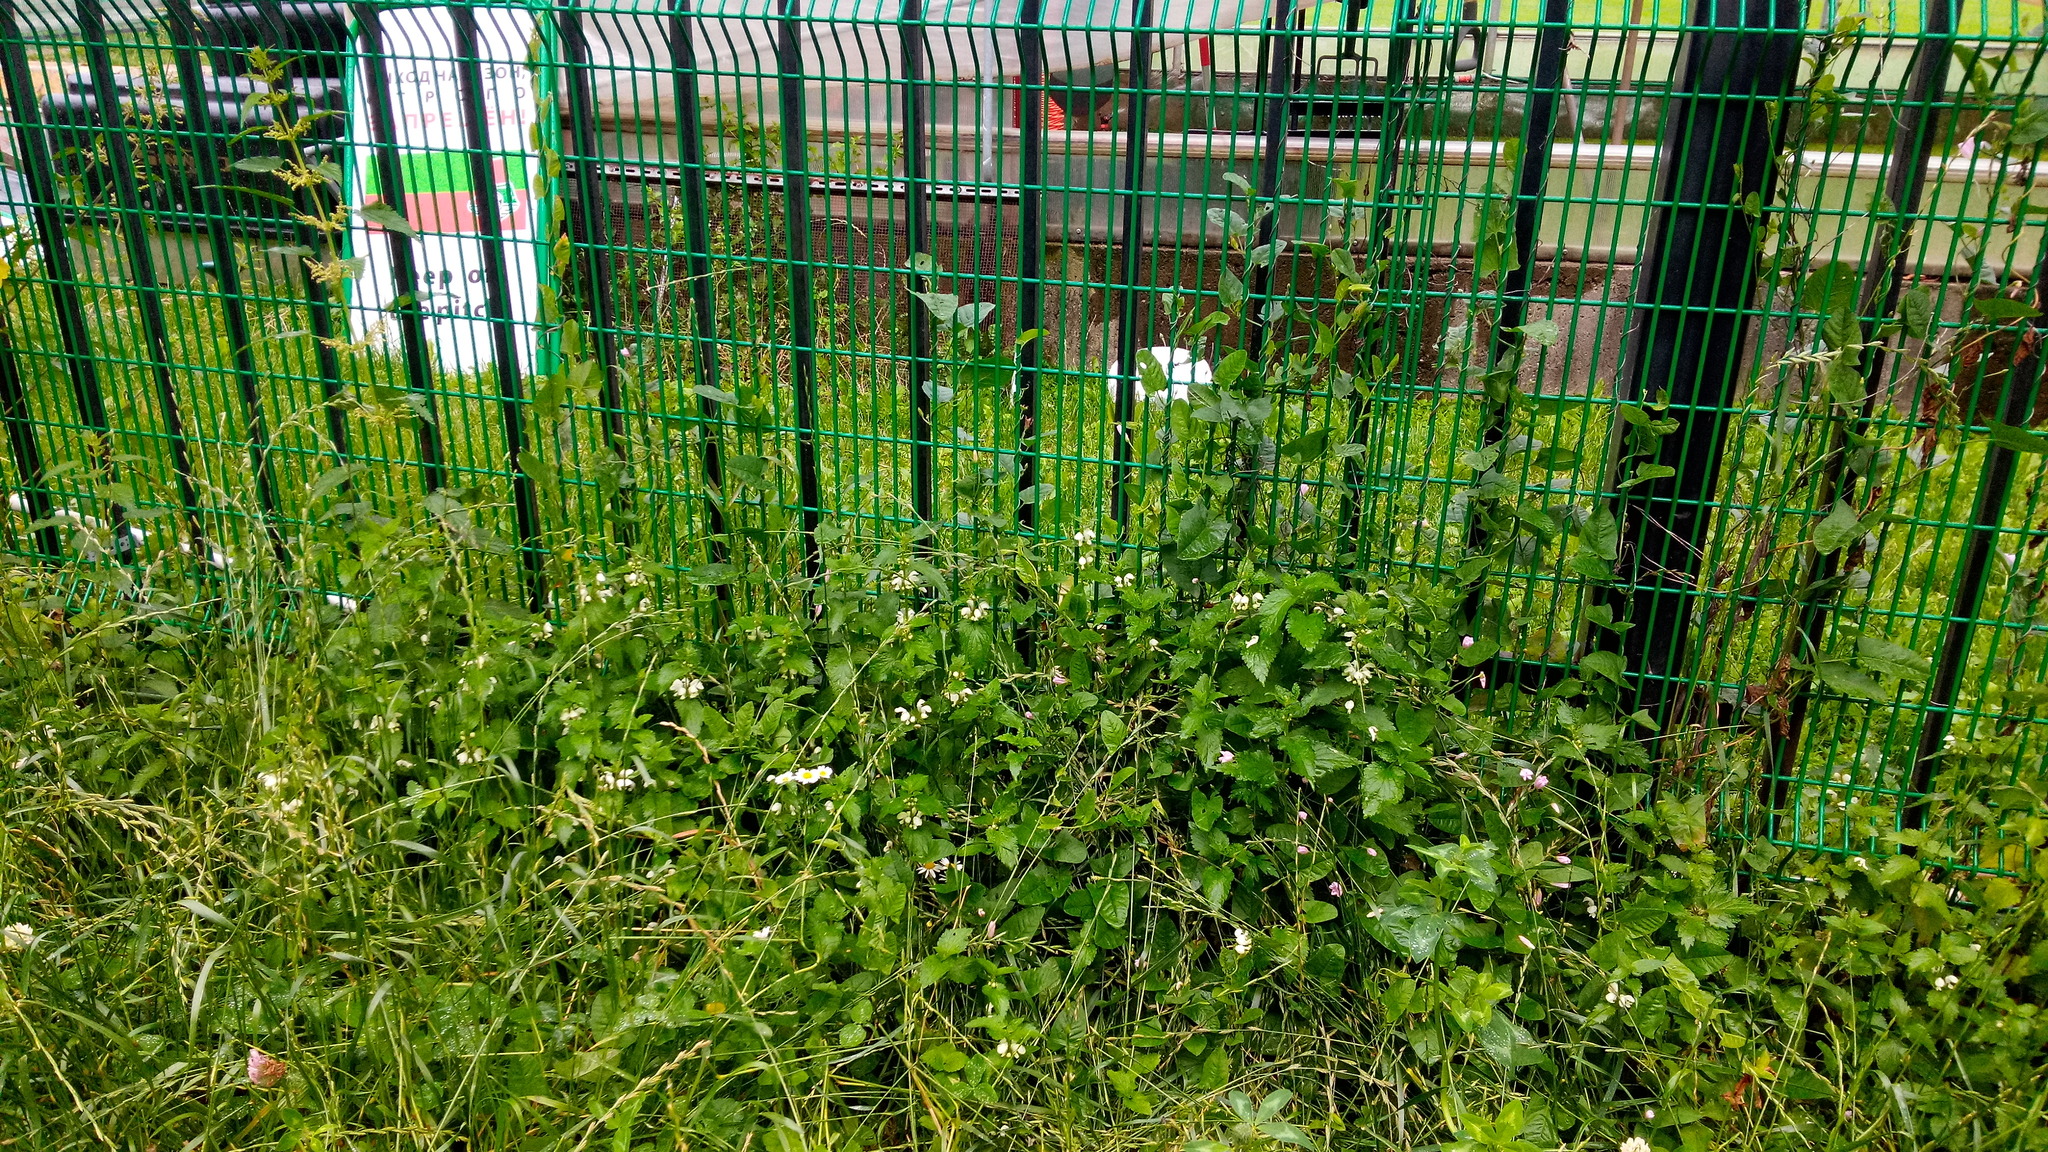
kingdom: Plantae
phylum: Tracheophyta
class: Magnoliopsida
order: Lamiales
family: Lamiaceae
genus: Lamium
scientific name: Lamium album
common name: White dead-nettle
